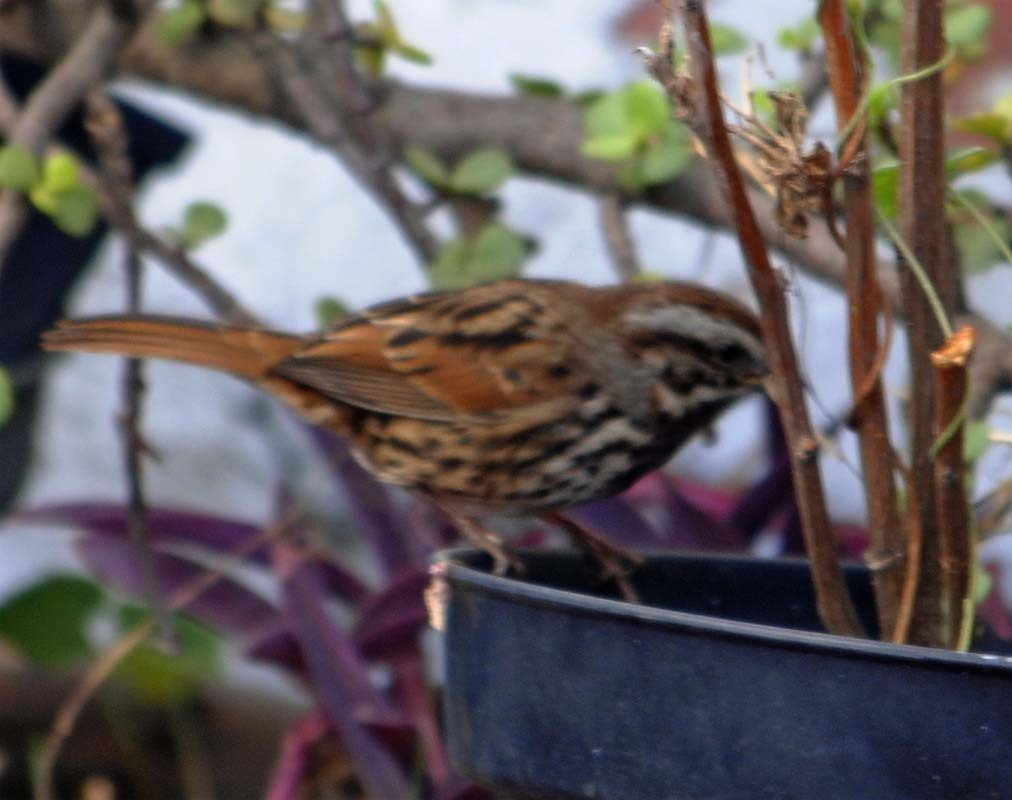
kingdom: Animalia
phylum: Chordata
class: Aves
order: Passeriformes
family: Passerellidae
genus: Melospiza
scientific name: Melospiza melodia
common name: Song sparrow
